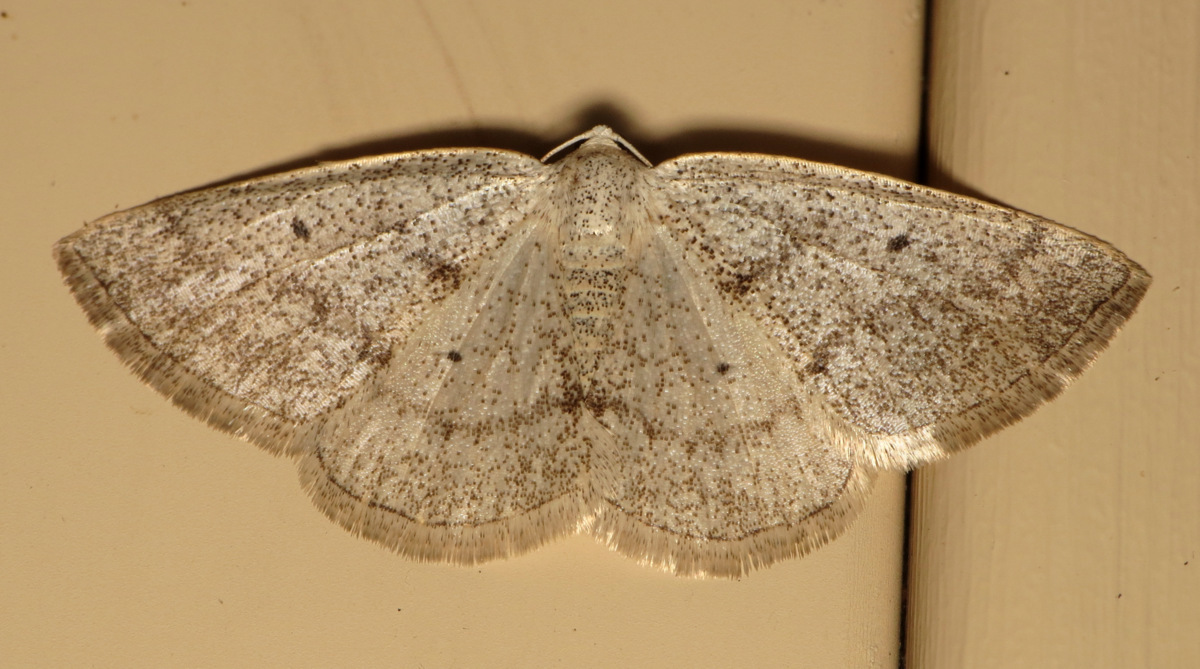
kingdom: Animalia
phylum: Arthropoda
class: Insecta
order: Lepidoptera
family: Geometridae
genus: Lomographa
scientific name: Lomographa glomeraria
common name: Gray spring moth
